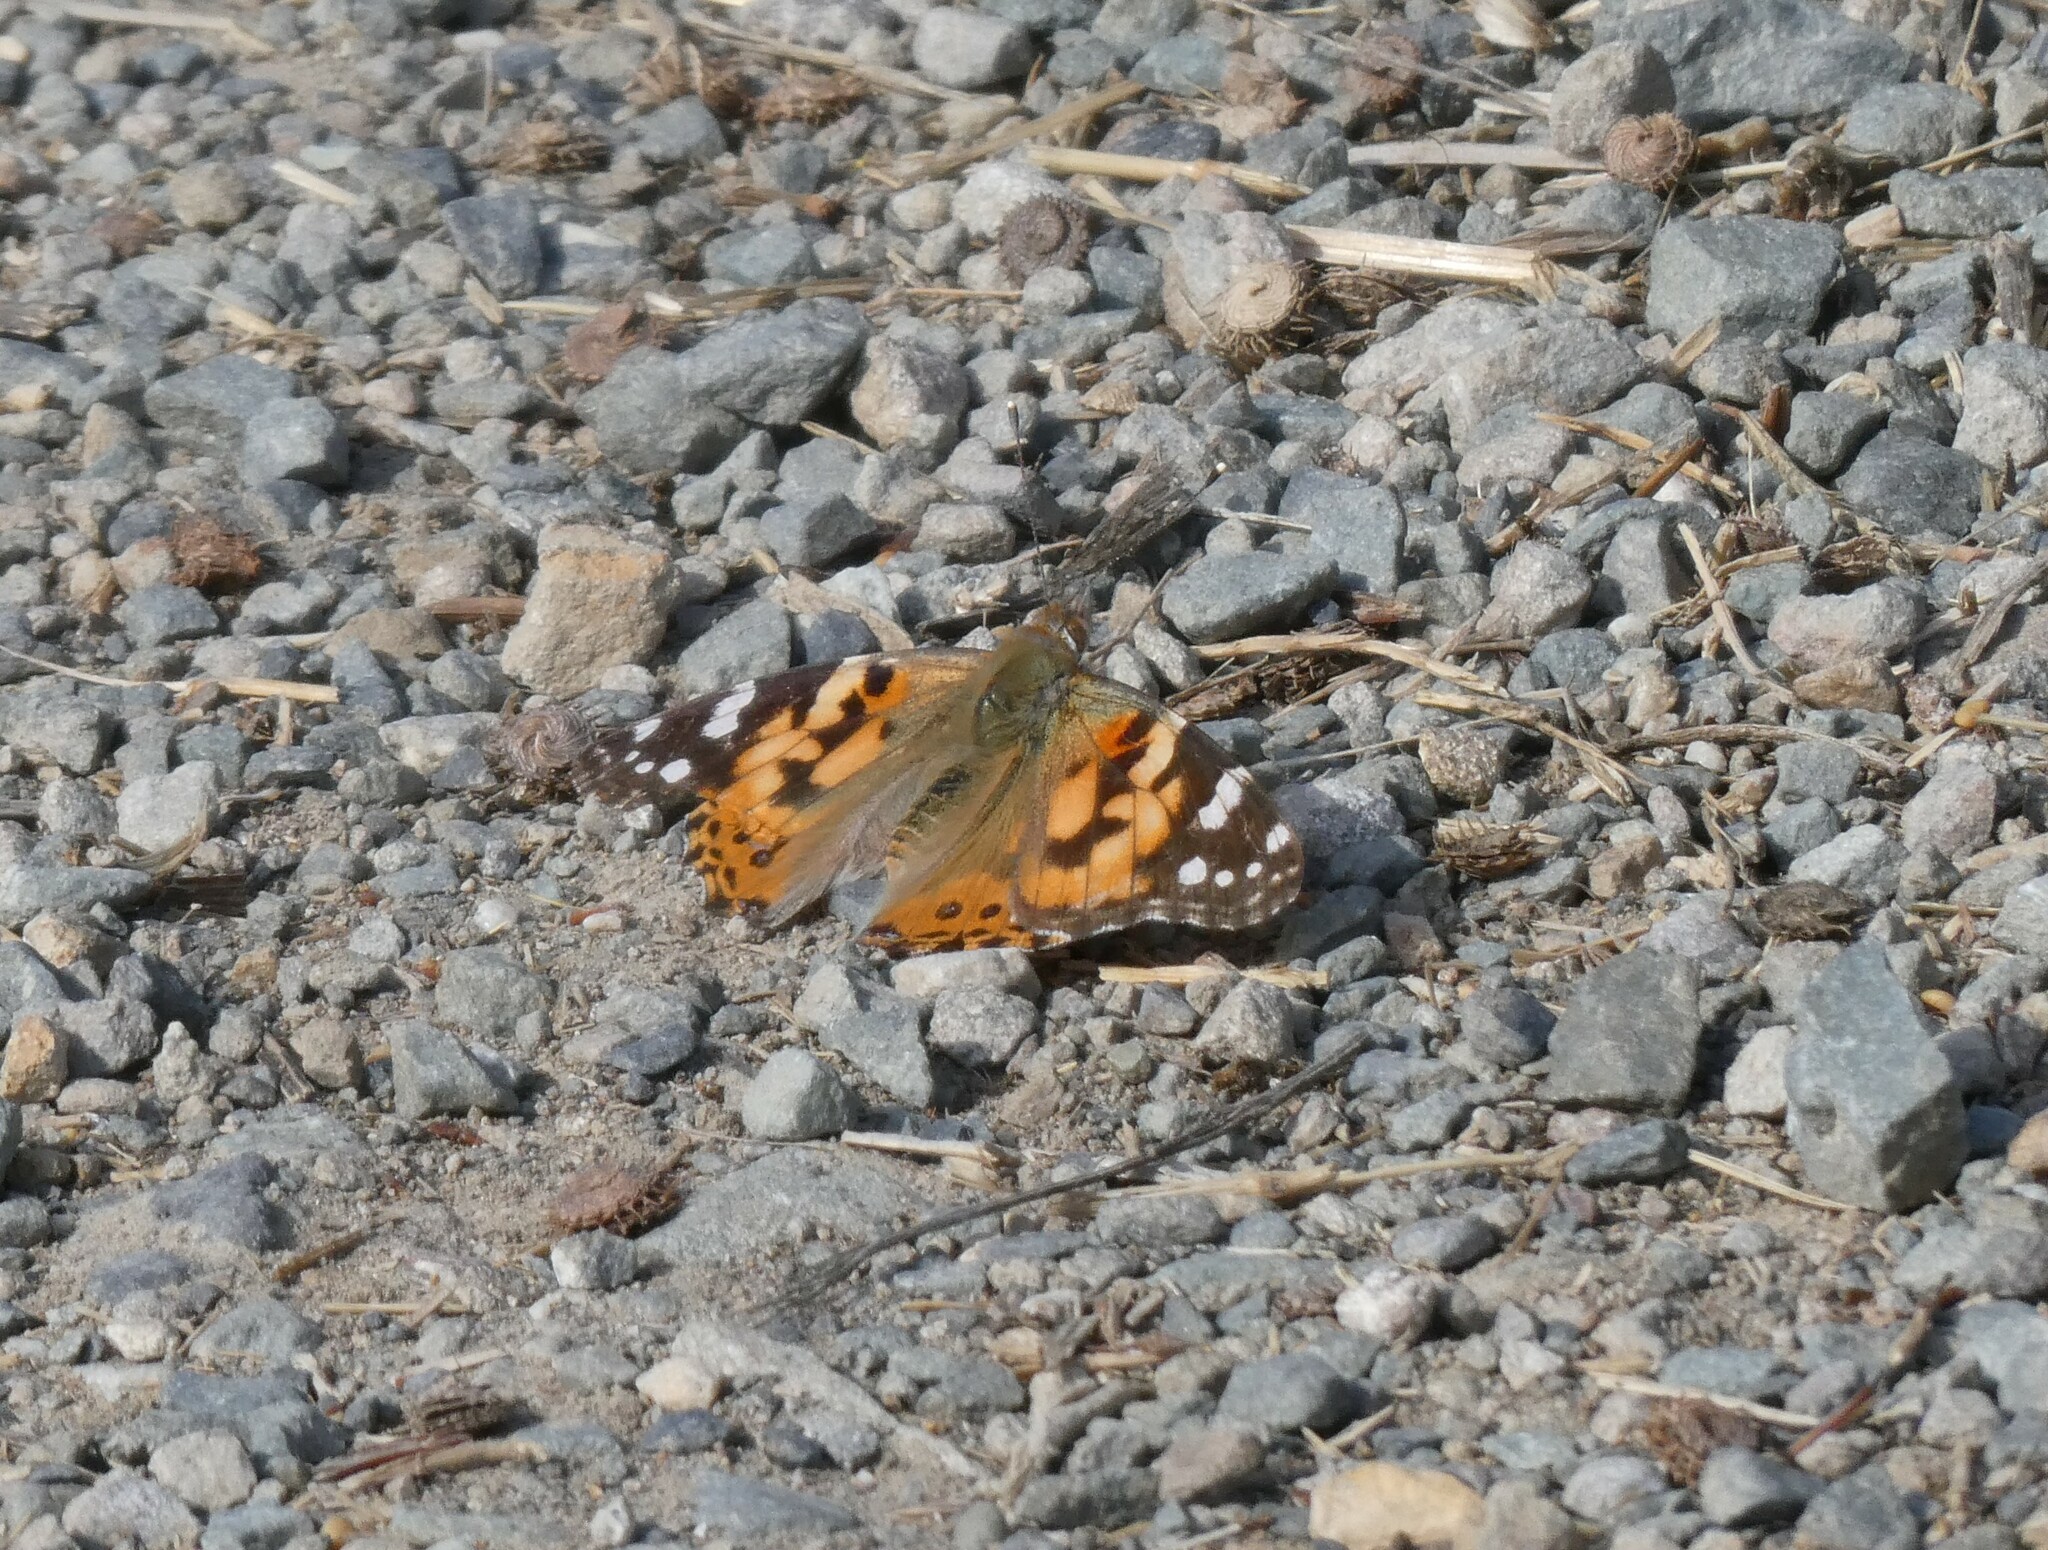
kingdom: Animalia
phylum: Arthropoda
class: Insecta
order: Lepidoptera
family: Nymphalidae
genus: Vanessa
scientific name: Vanessa cardui
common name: Painted lady
